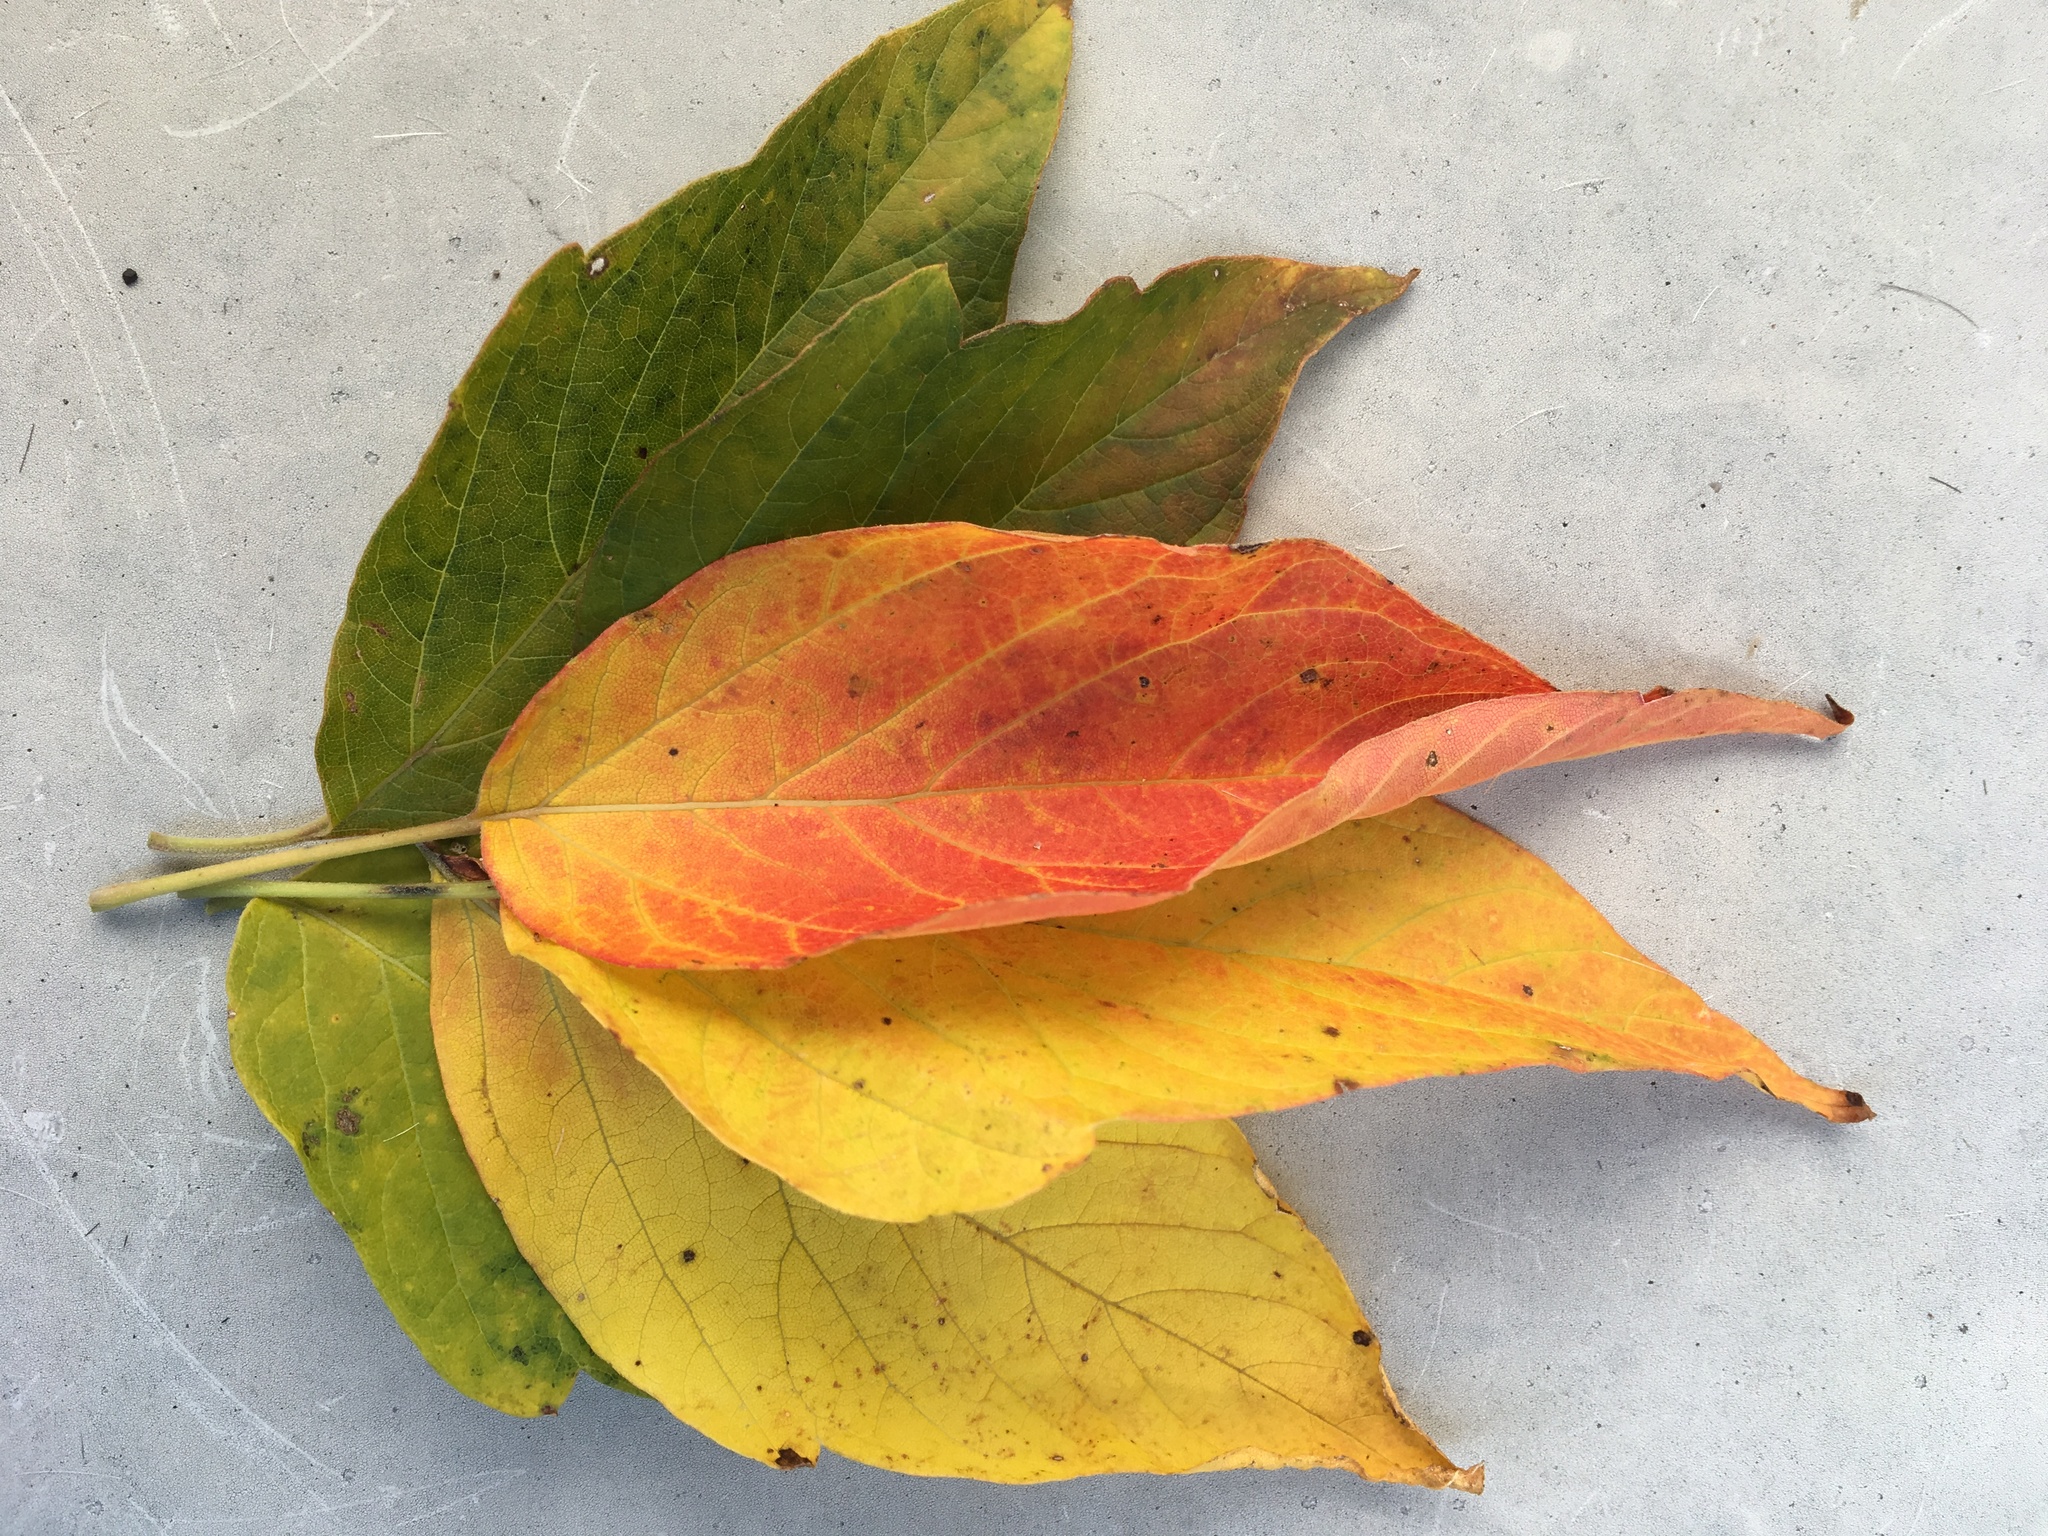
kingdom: Plantae
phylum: Tracheophyta
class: Magnoliopsida
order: Sapindales
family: Sapindaceae
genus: Acer
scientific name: Acer negundo
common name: Ashleaf maple
